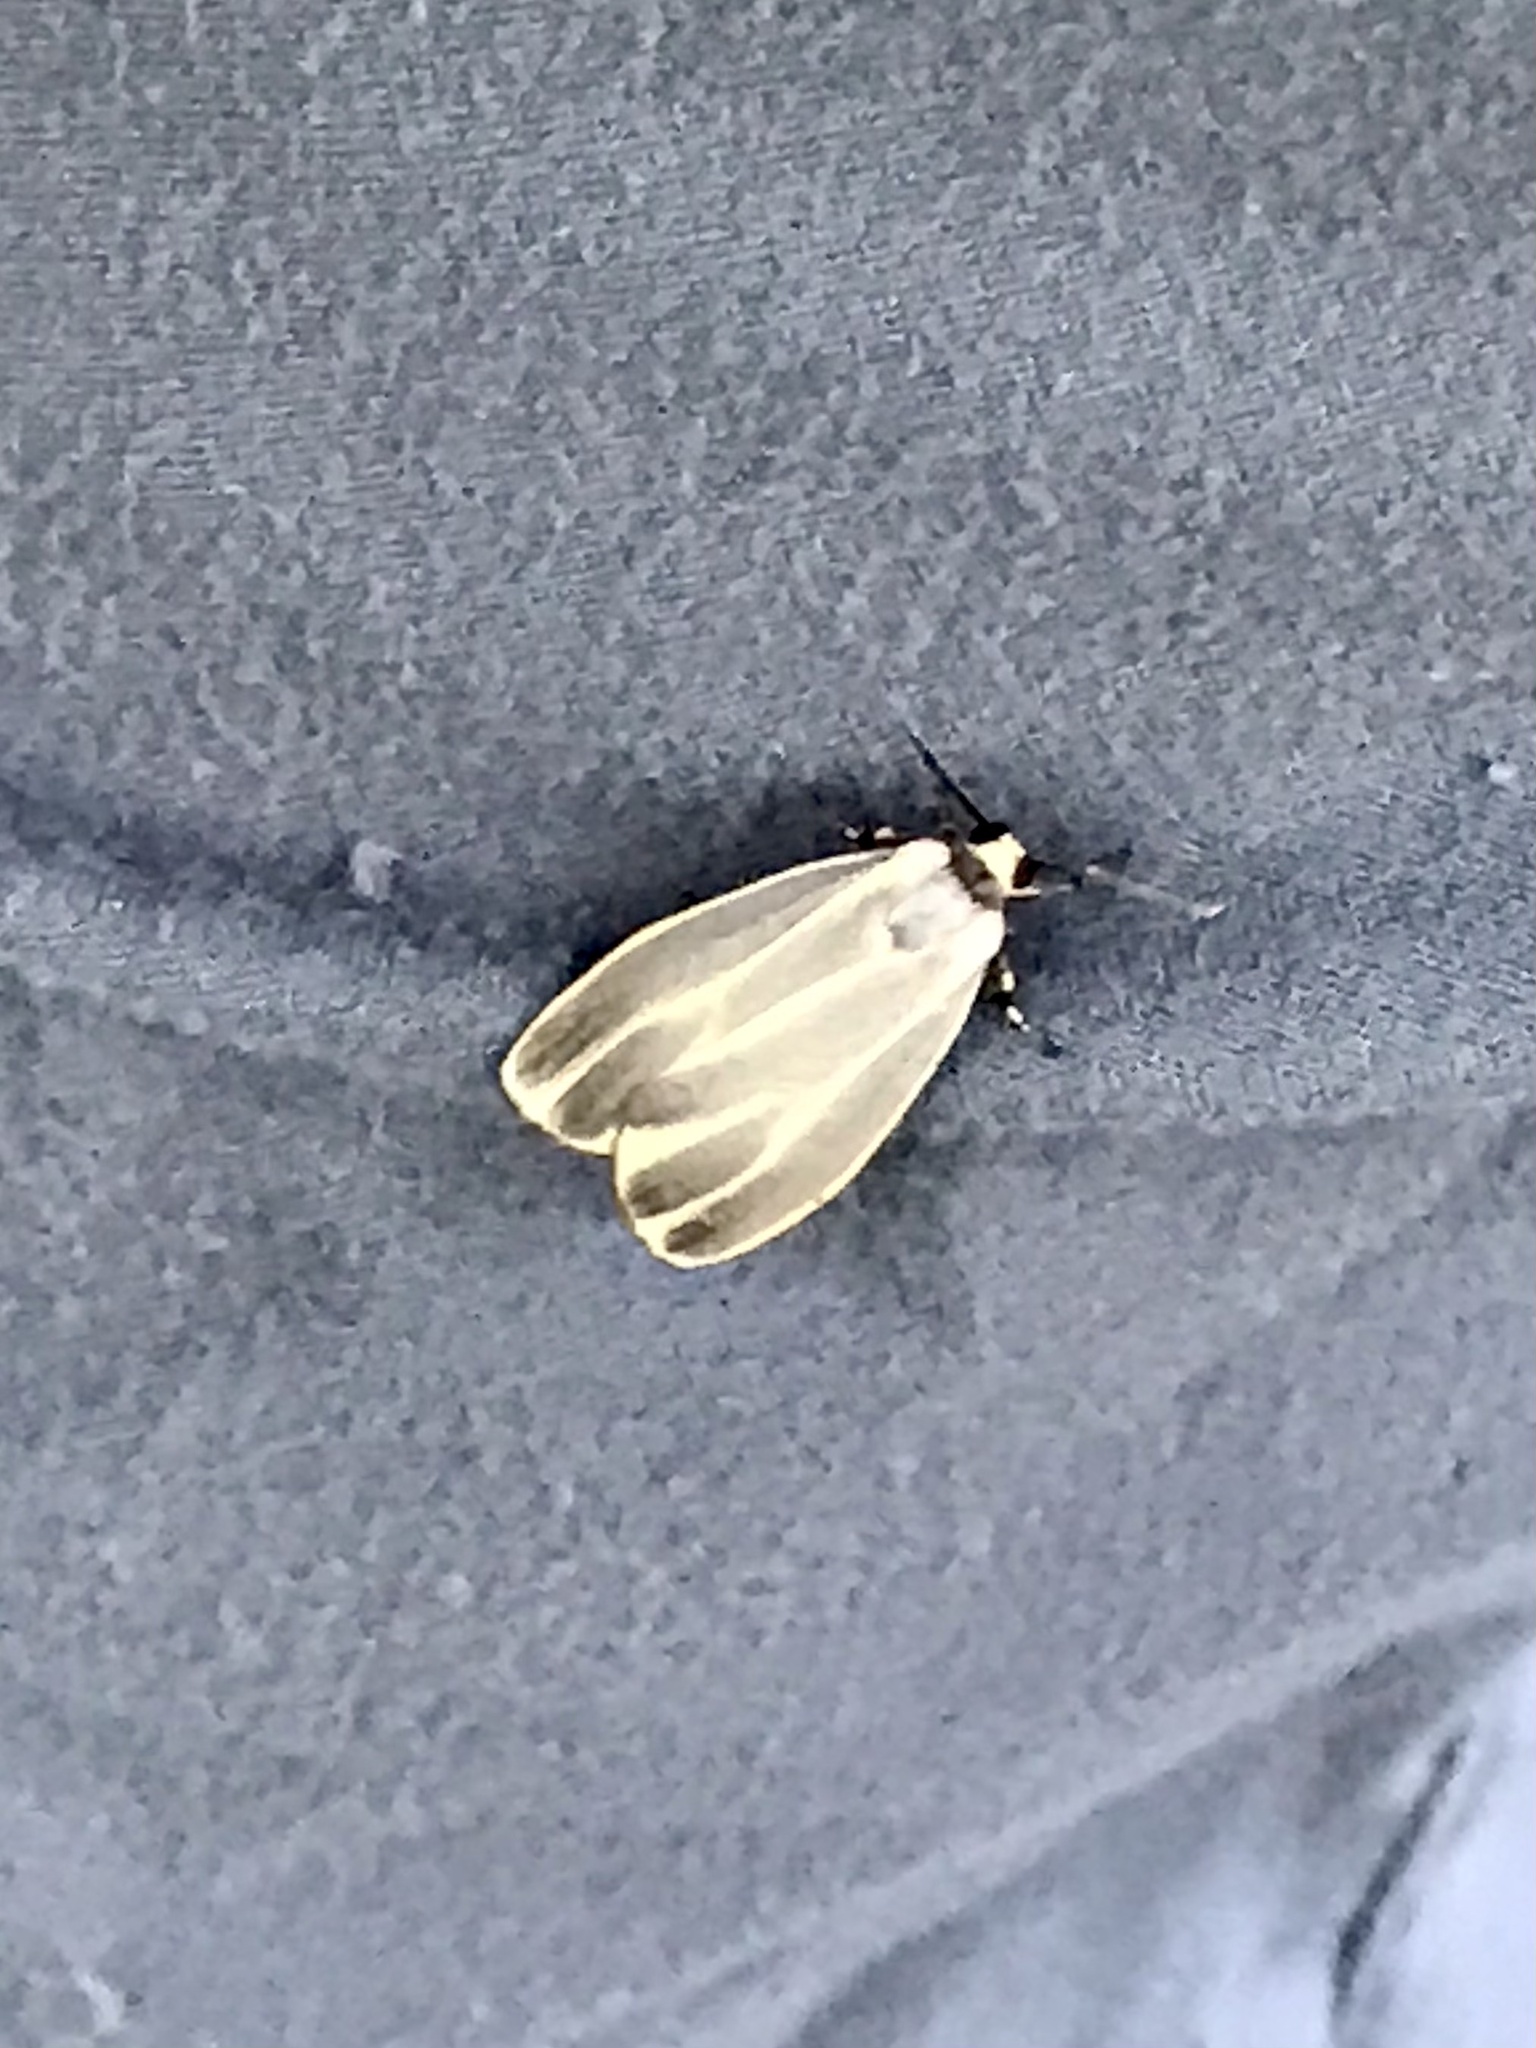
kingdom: Animalia
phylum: Arthropoda
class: Insecta
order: Lepidoptera
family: Erebidae
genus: Hypoprepia
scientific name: Hypoprepia fucosa
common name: Painted lichen moth
